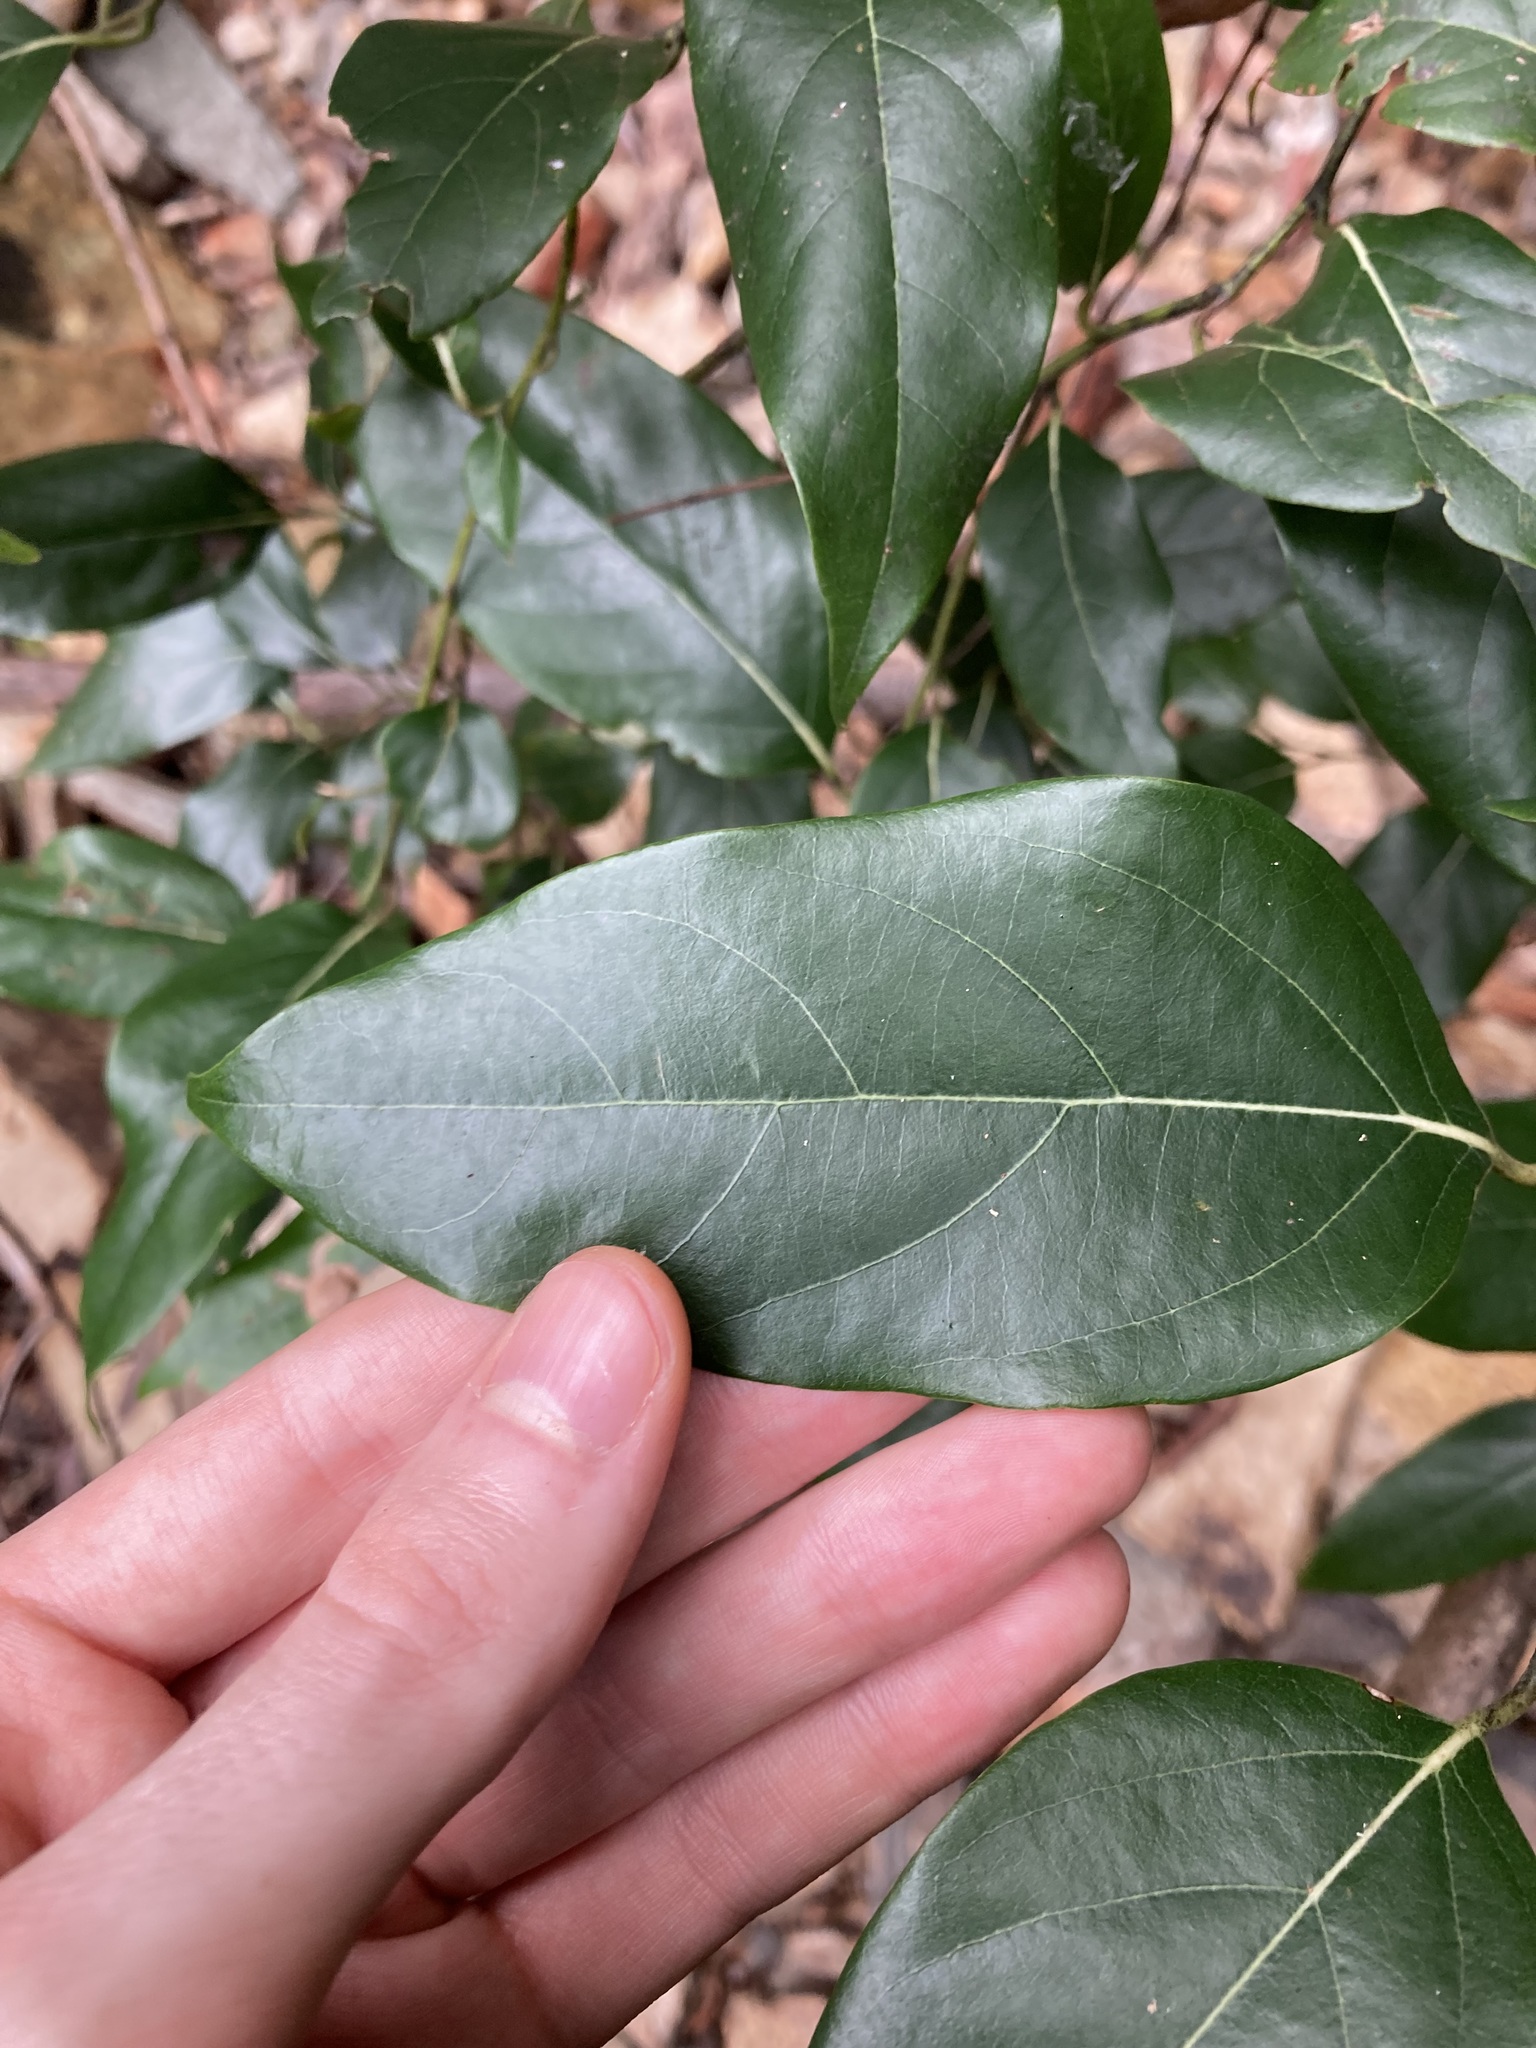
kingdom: Plantae
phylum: Tracheophyta
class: Magnoliopsida
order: Laurales
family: Lauraceae
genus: Cryptocarya
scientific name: Cryptocarya rigida
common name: Forest-maple
